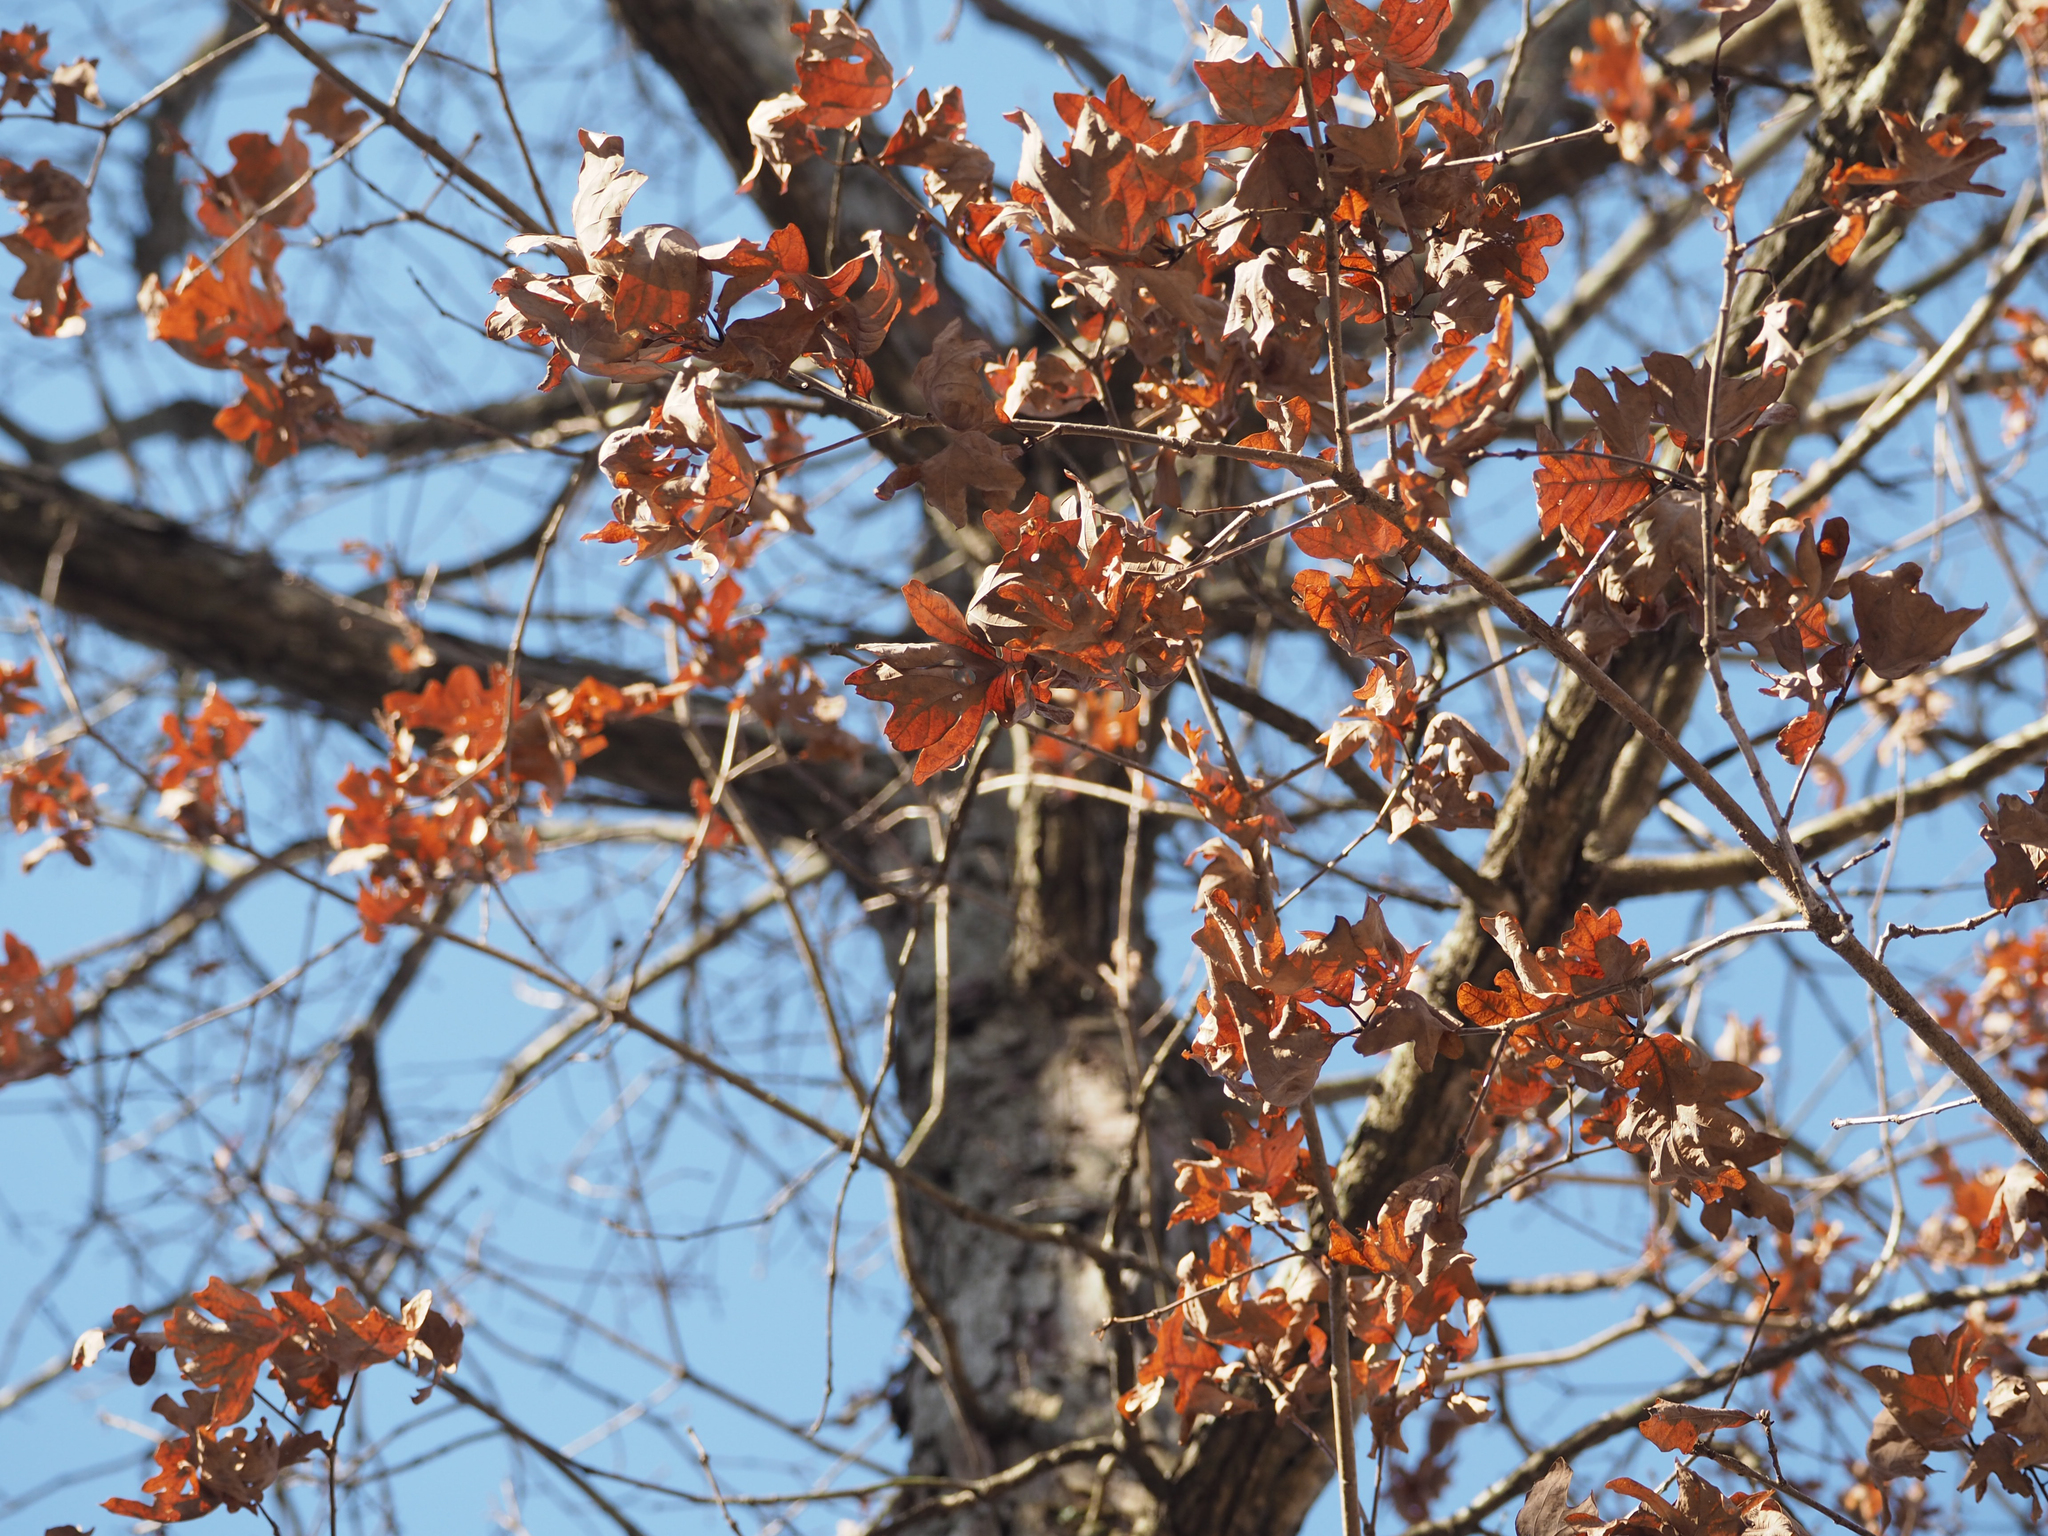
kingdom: Plantae
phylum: Tracheophyta
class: Magnoliopsida
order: Fagales
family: Fagaceae
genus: Quercus
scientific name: Quercus alba
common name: White oak
